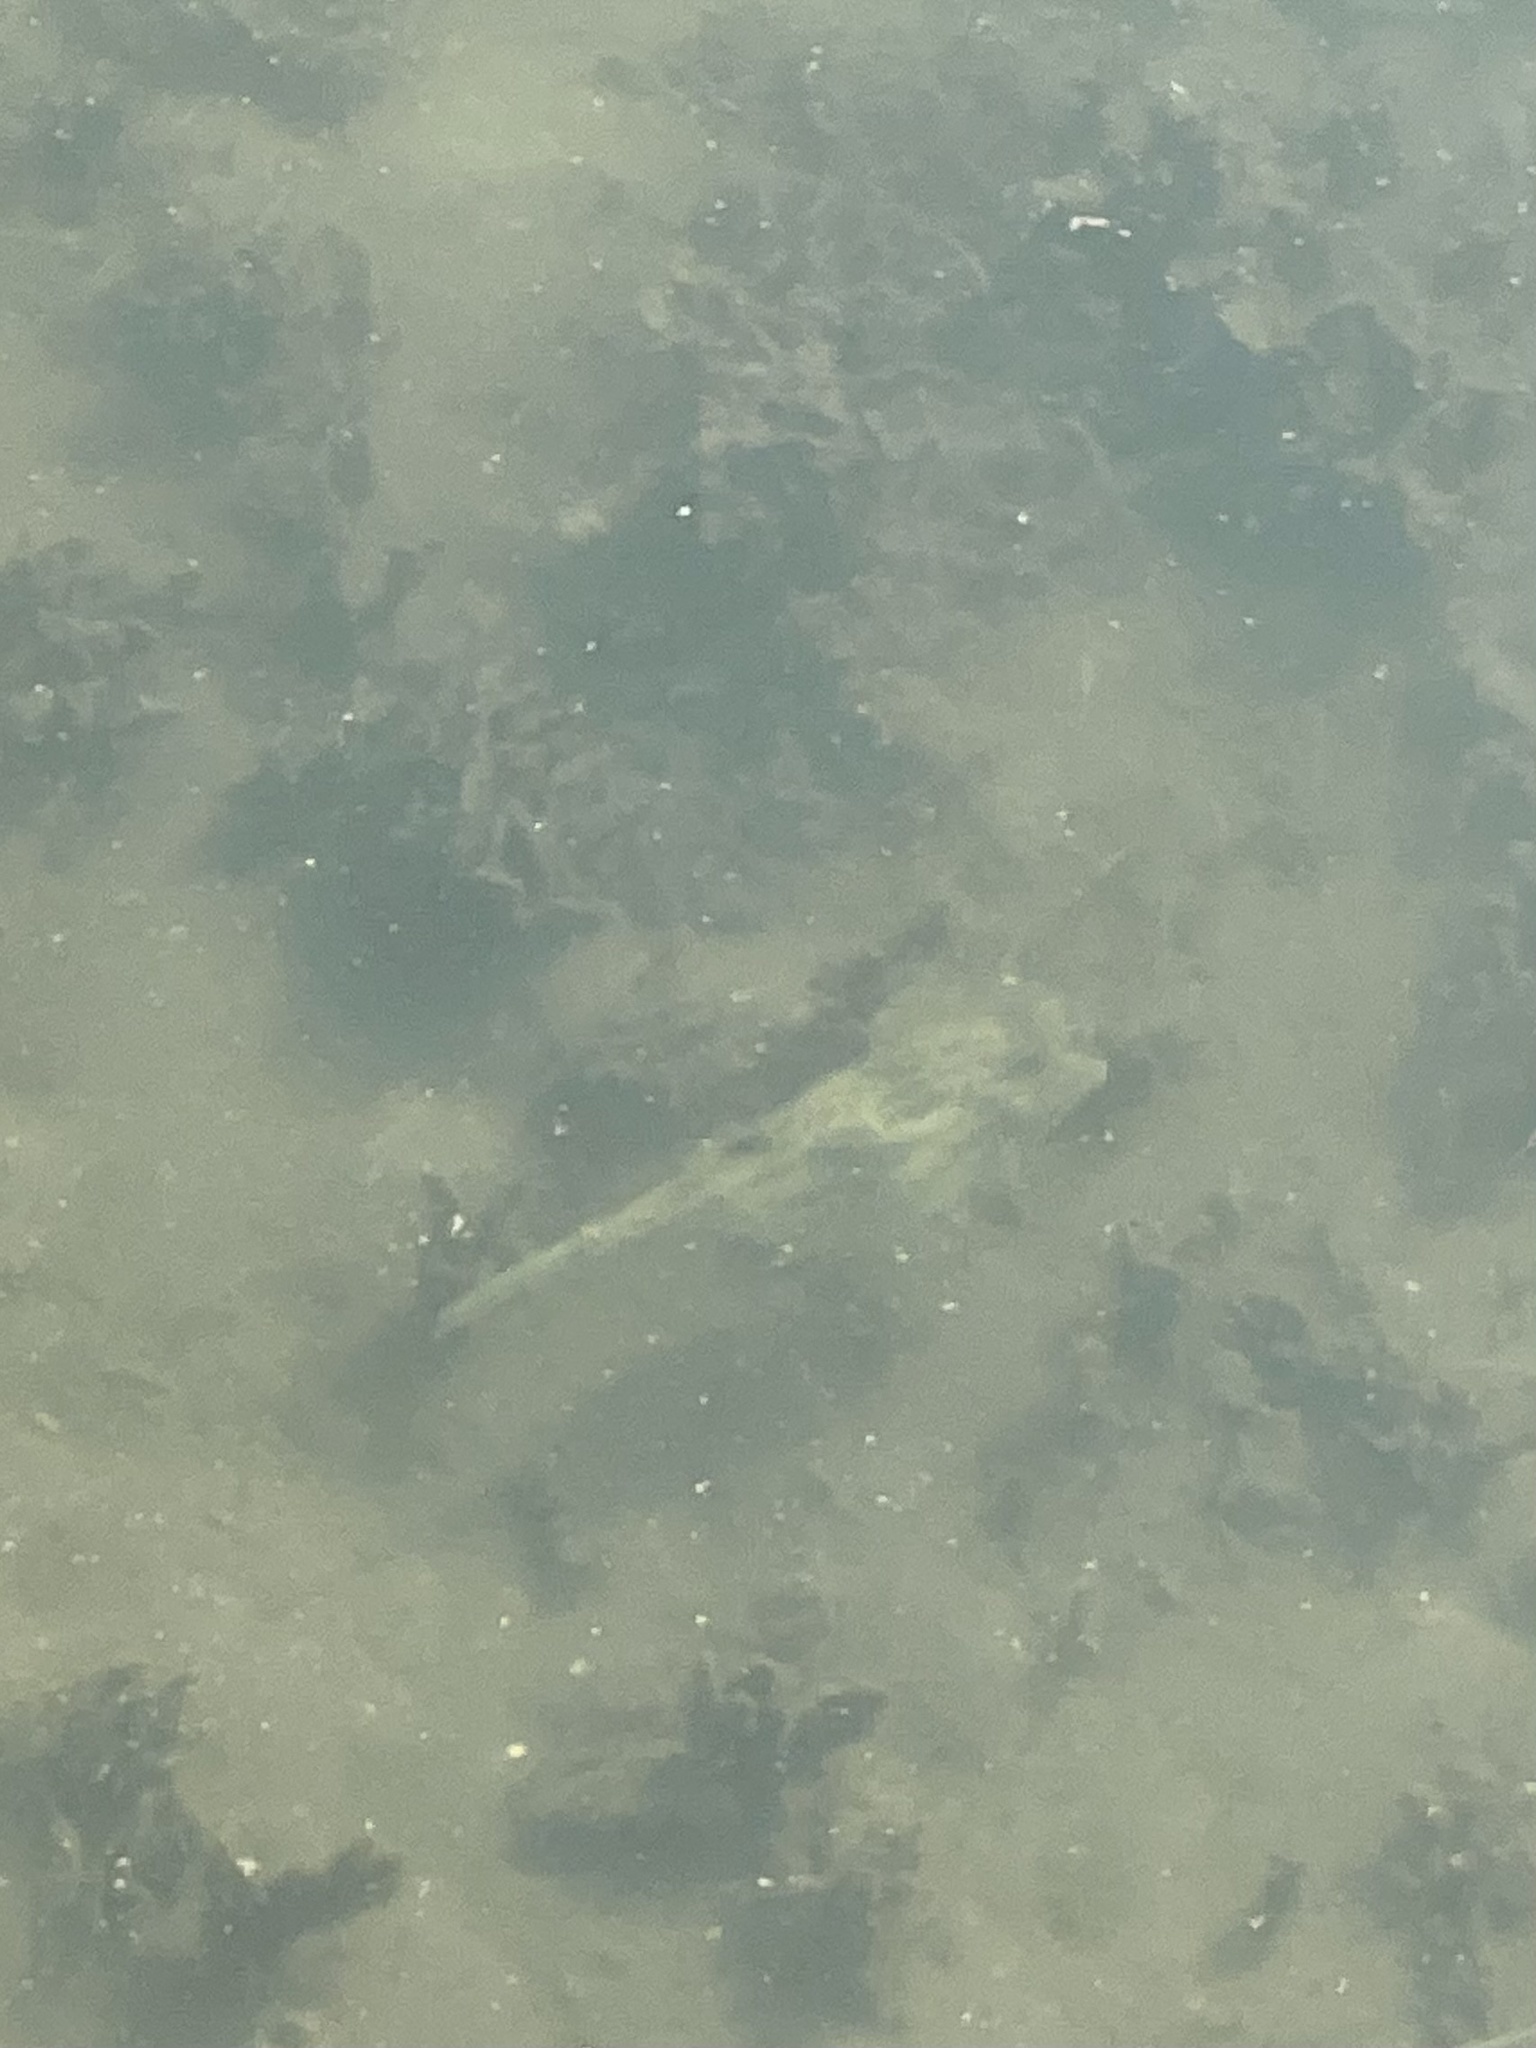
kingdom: Animalia
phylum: Chordata
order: Tetraodontiformes
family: Ostraciidae
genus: Acanthostracion
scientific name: Acanthostracion quadricornis
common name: Scrawled cowfish
